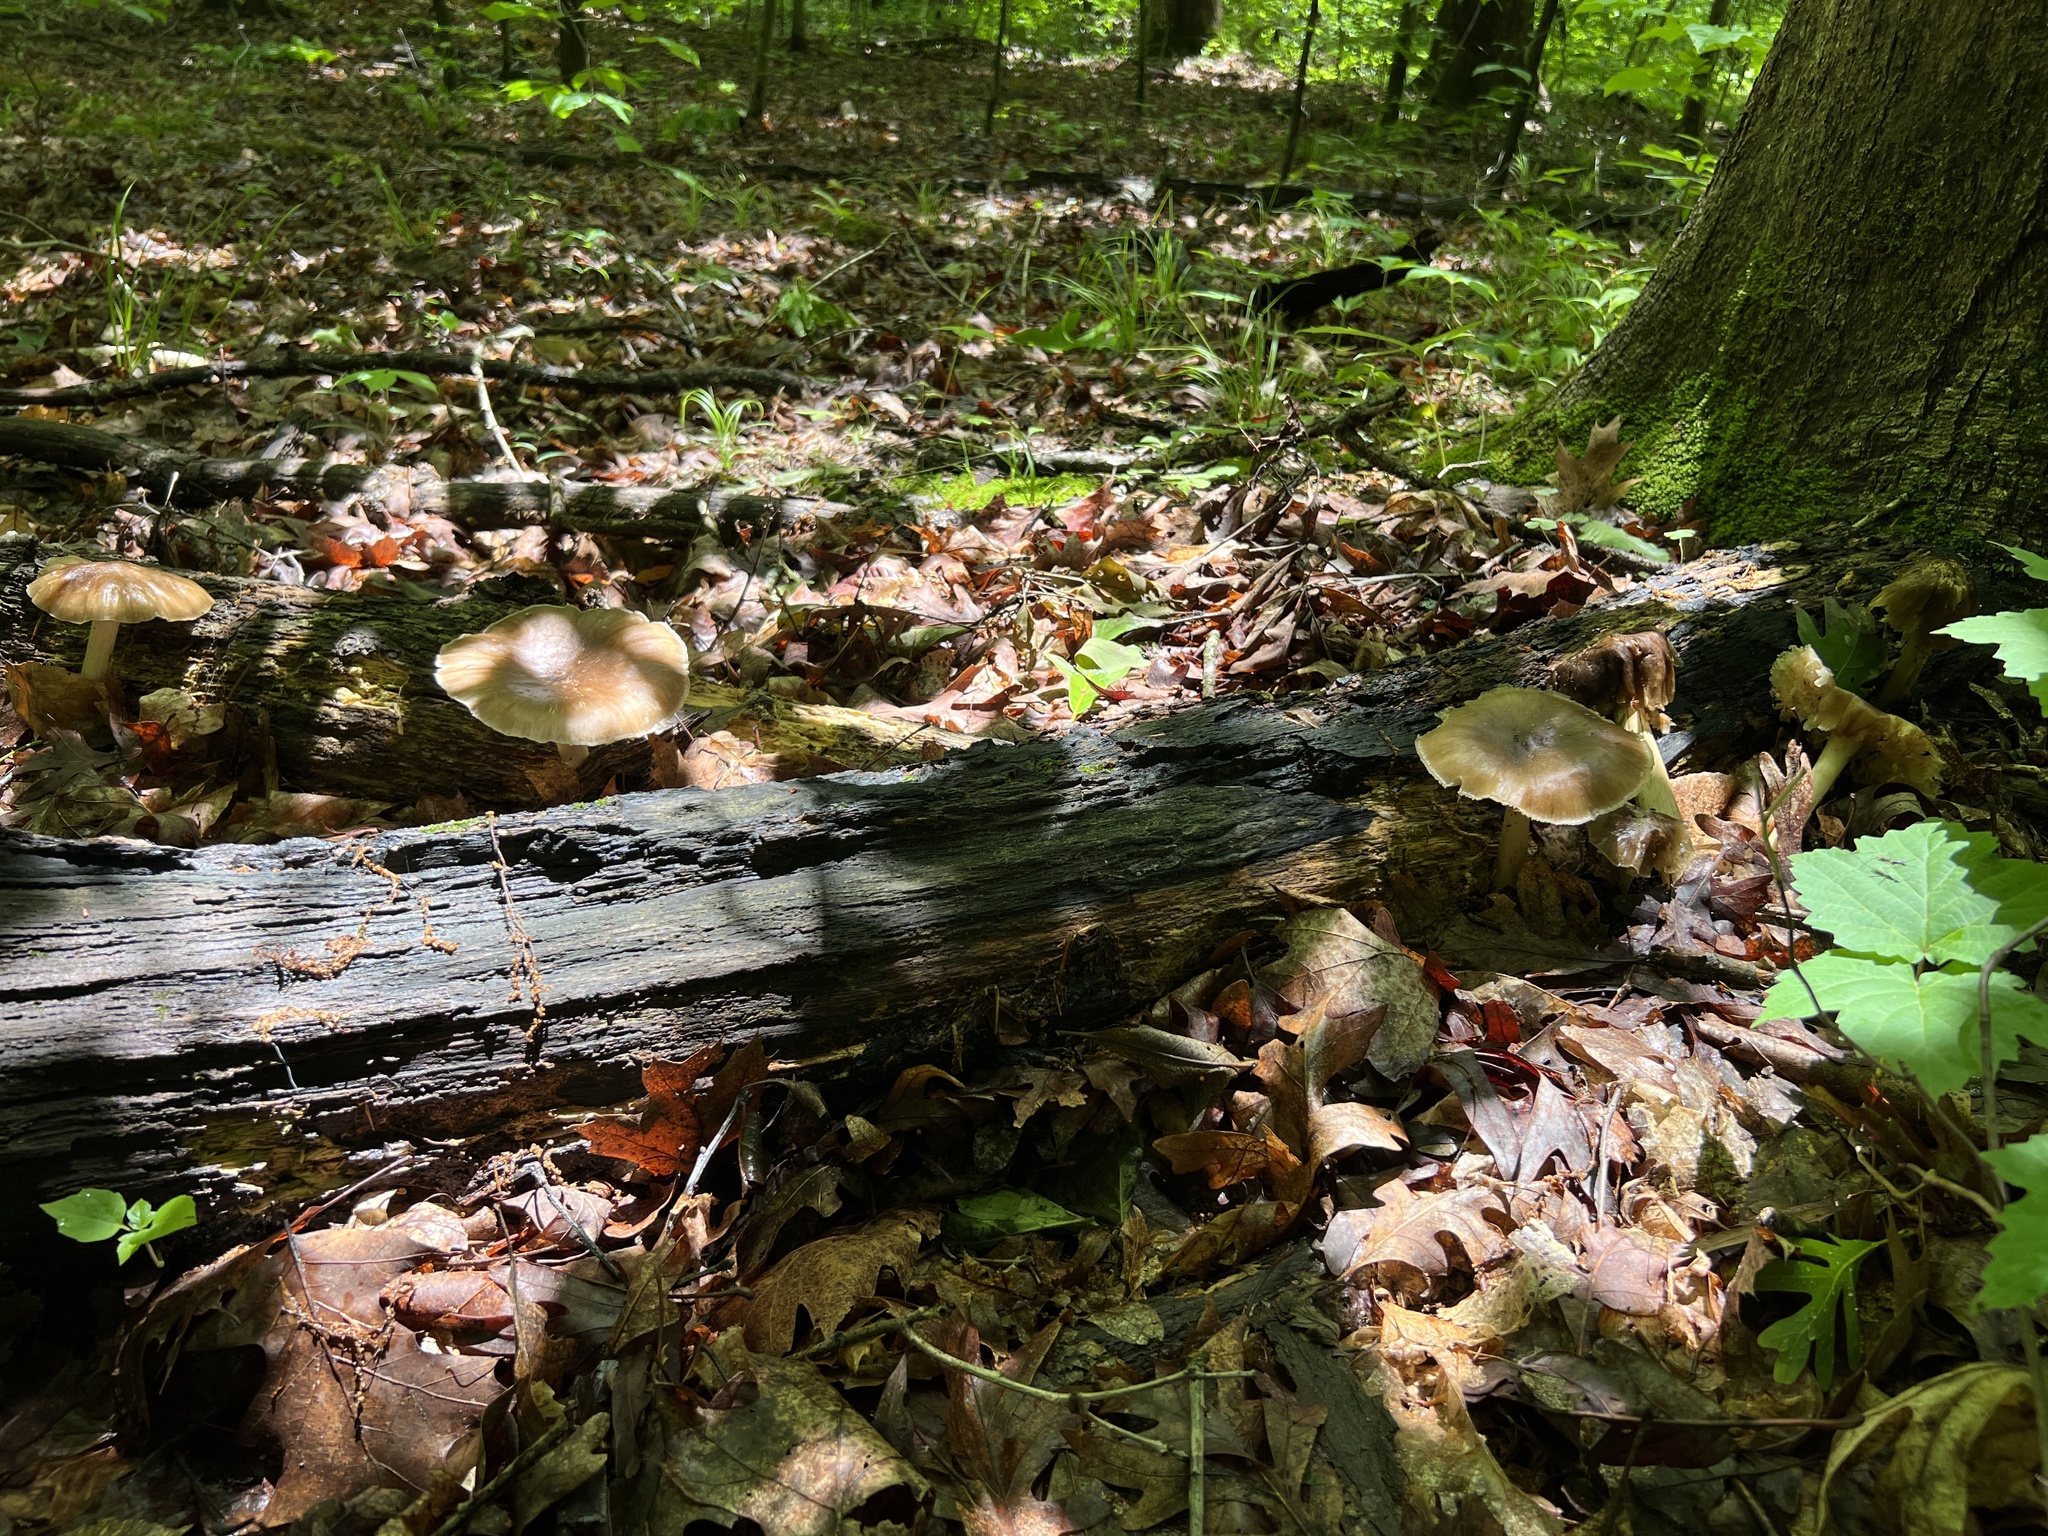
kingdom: Fungi
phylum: Basidiomycota
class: Agaricomycetes
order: Agaricales
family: Tricholomataceae
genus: Megacollybia
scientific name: Megacollybia rodmanii
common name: Eastern american platterful mushroom
